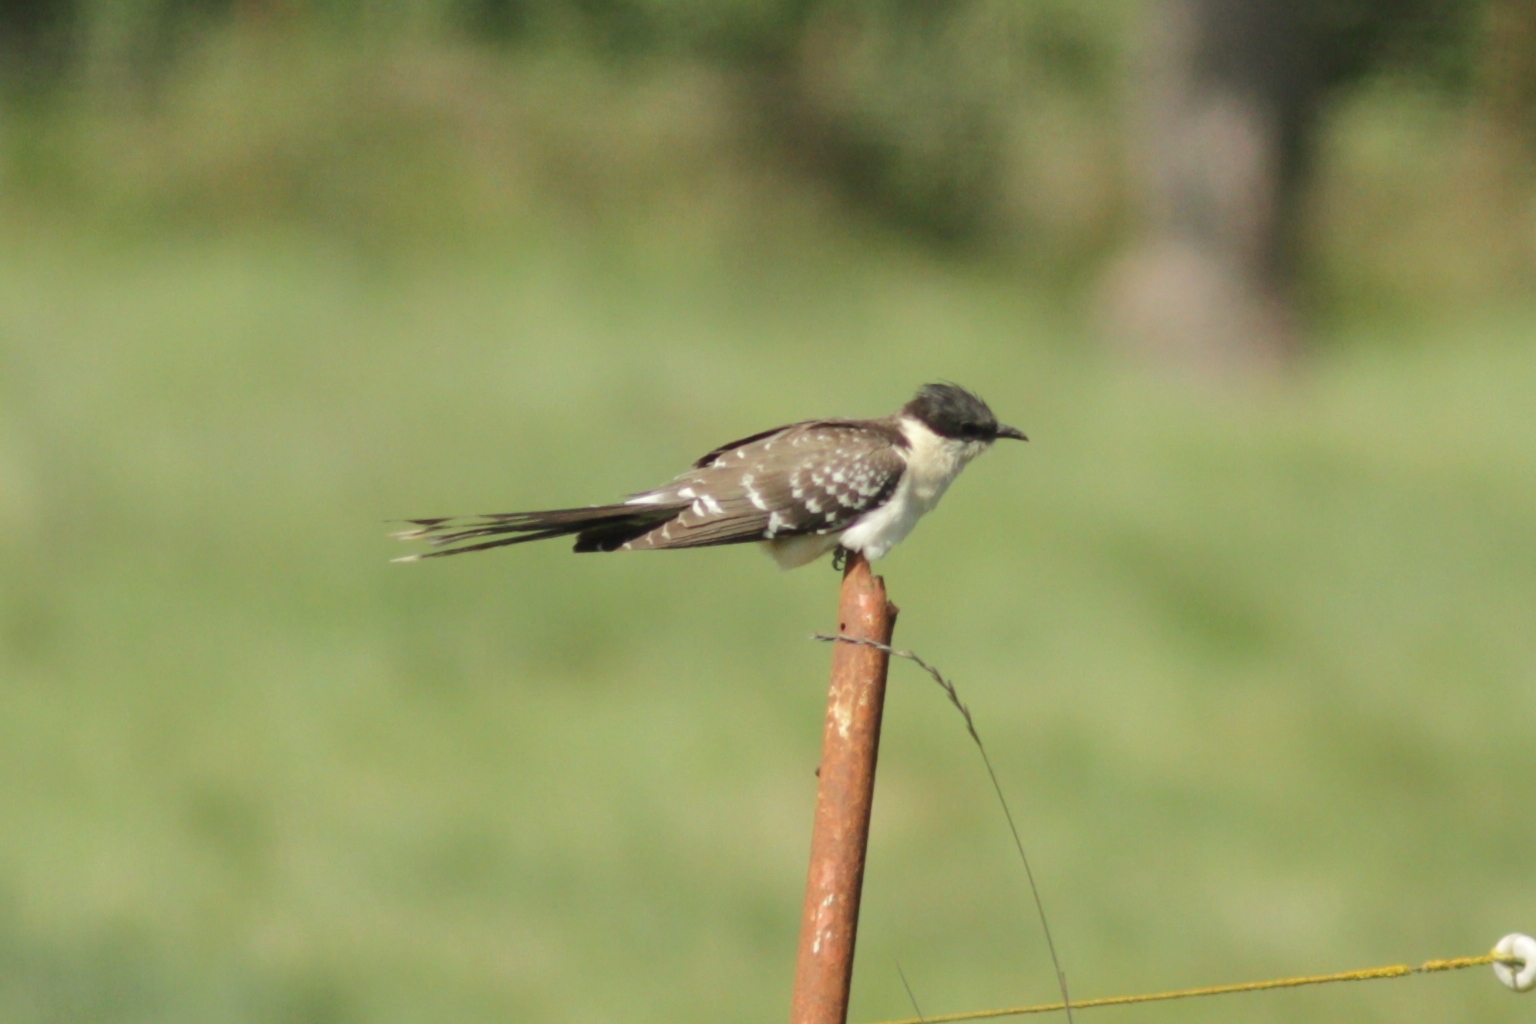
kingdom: Animalia
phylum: Chordata
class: Aves
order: Cuculiformes
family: Cuculidae
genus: Clamator
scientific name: Clamator glandarius
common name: Great spotted cuckoo
